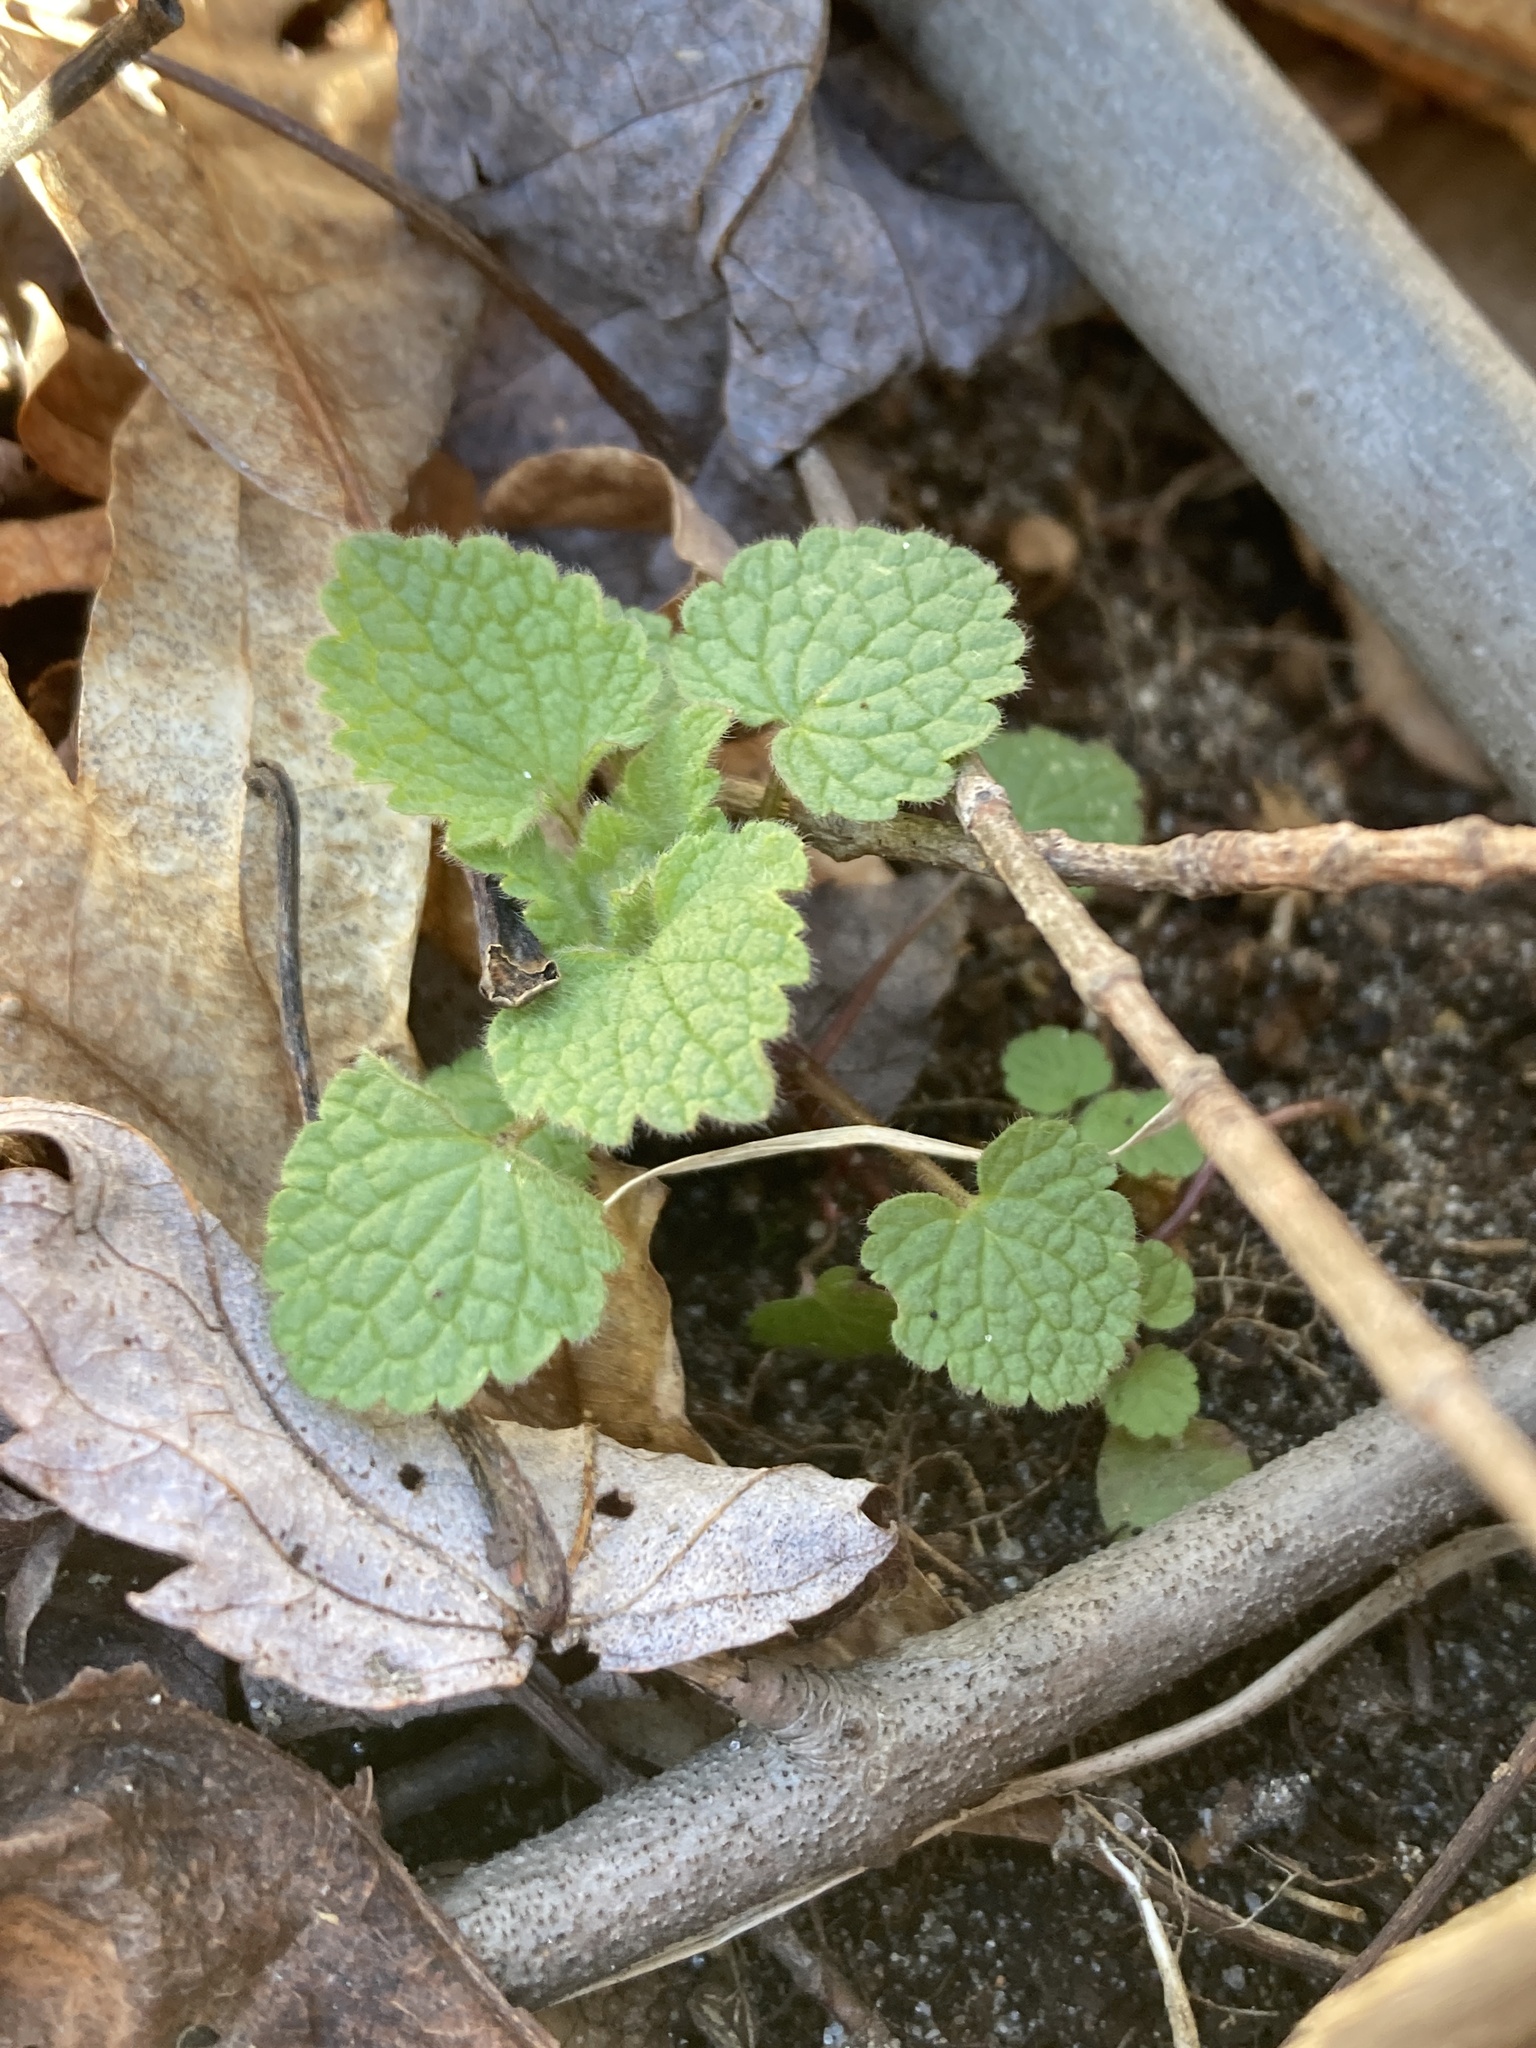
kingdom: Plantae
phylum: Tracheophyta
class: Magnoliopsida
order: Lamiales
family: Lamiaceae
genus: Lamium
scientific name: Lamium purpureum
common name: Red dead-nettle
